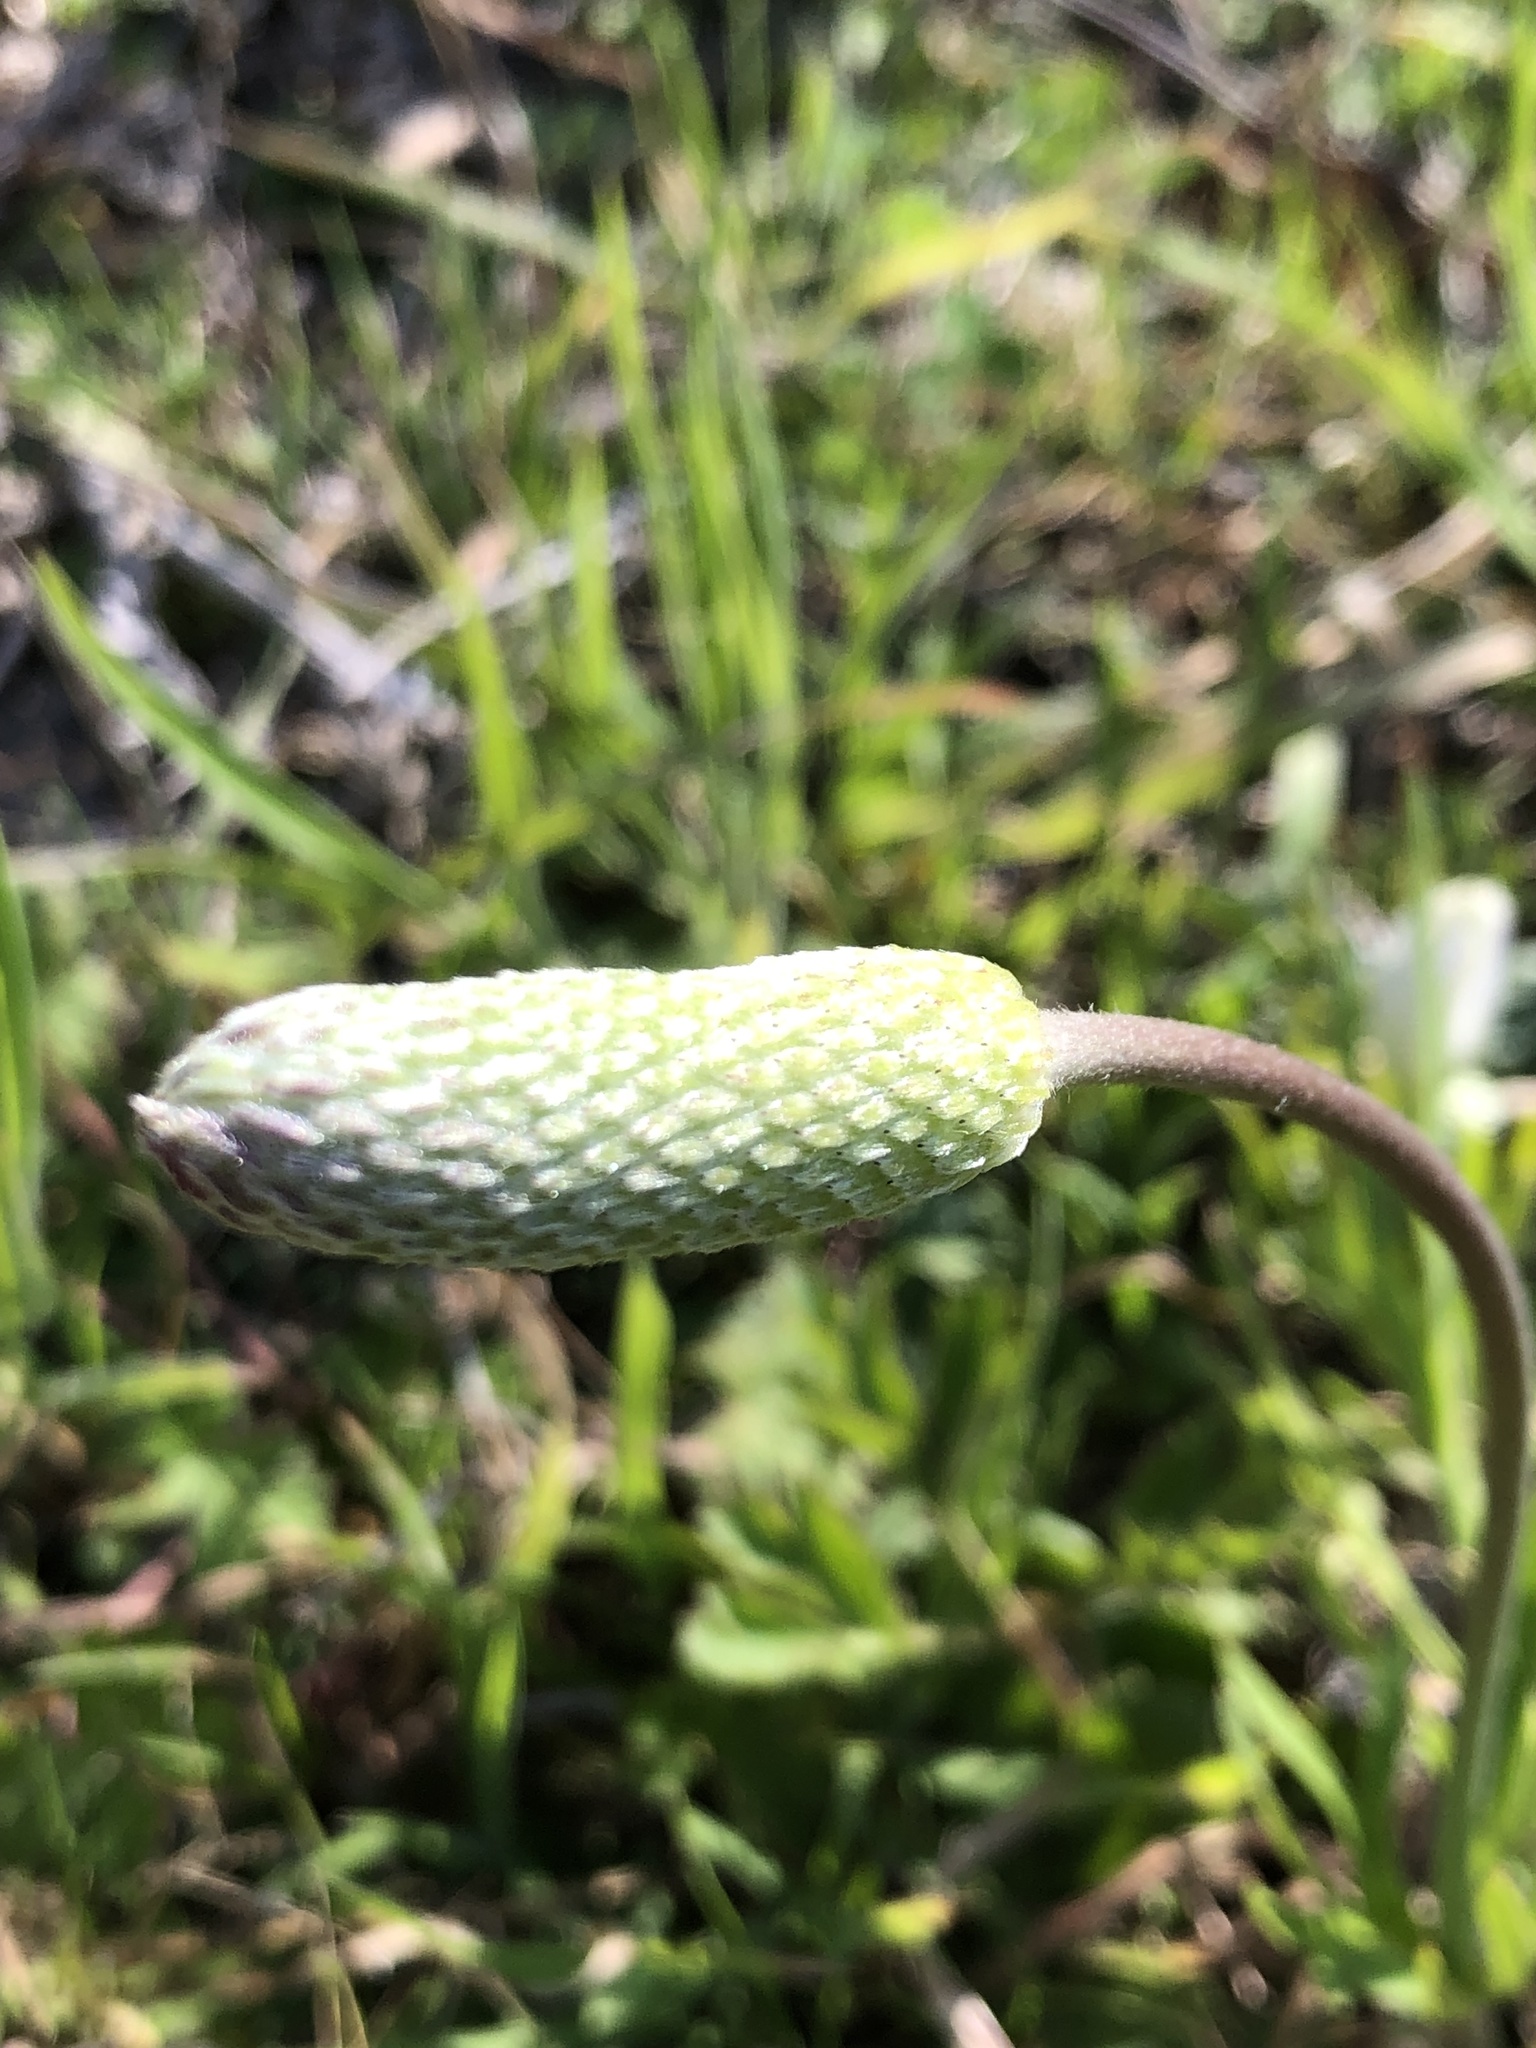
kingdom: Plantae
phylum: Tracheophyta
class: Magnoliopsida
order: Ranunculales
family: Ranunculaceae
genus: Anemone
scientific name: Anemone berlandieri
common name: Ten-petal anemone
